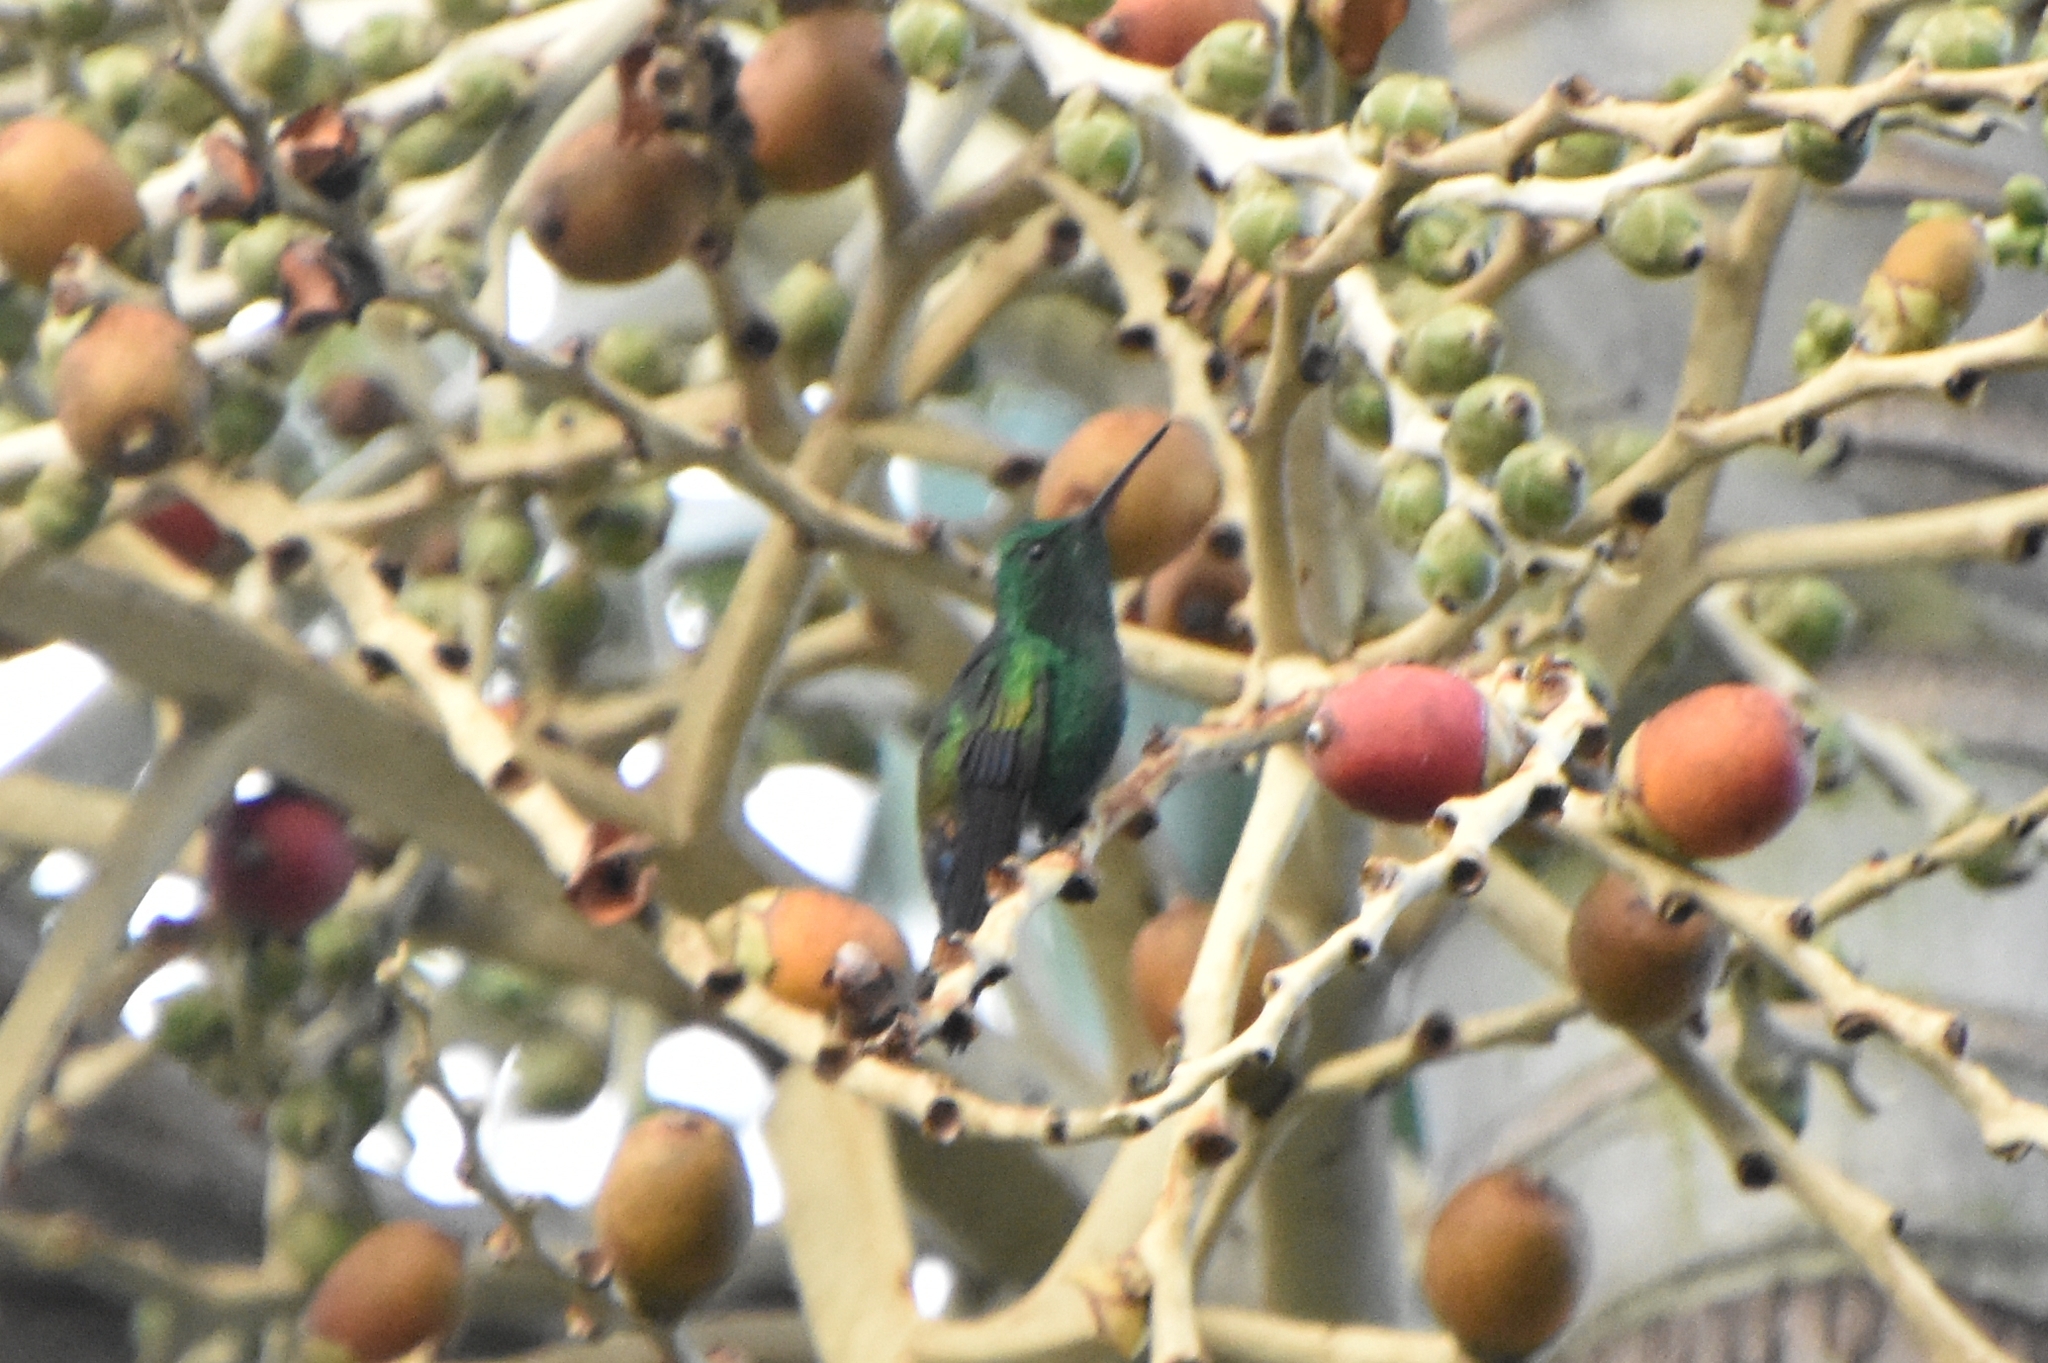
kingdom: Animalia
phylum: Chordata
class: Aves
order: Apodiformes
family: Trochilidae
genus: Saucerottia
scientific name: Saucerottia hoffmanni
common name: Blue-vented hummingbird
